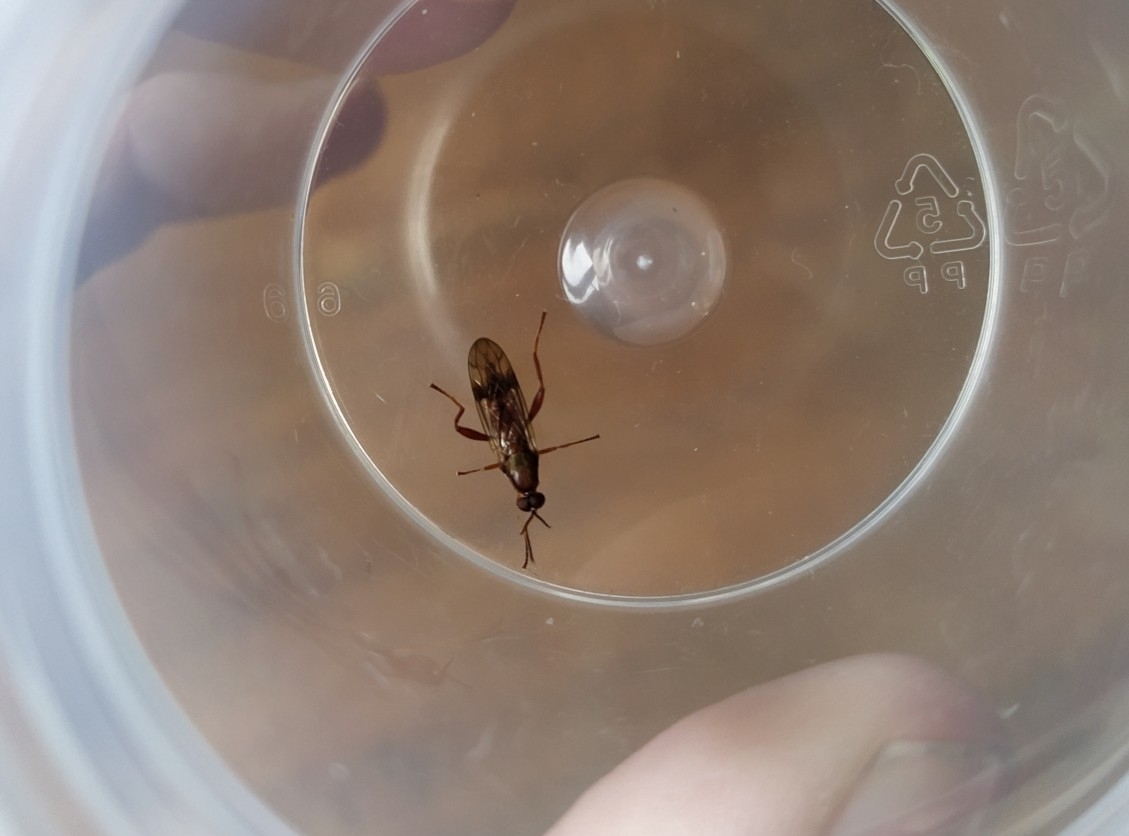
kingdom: Animalia
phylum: Arthropoda
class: Insecta
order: Diptera
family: Stratiomyidae
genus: Benhamyia
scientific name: Benhamyia apicalis
